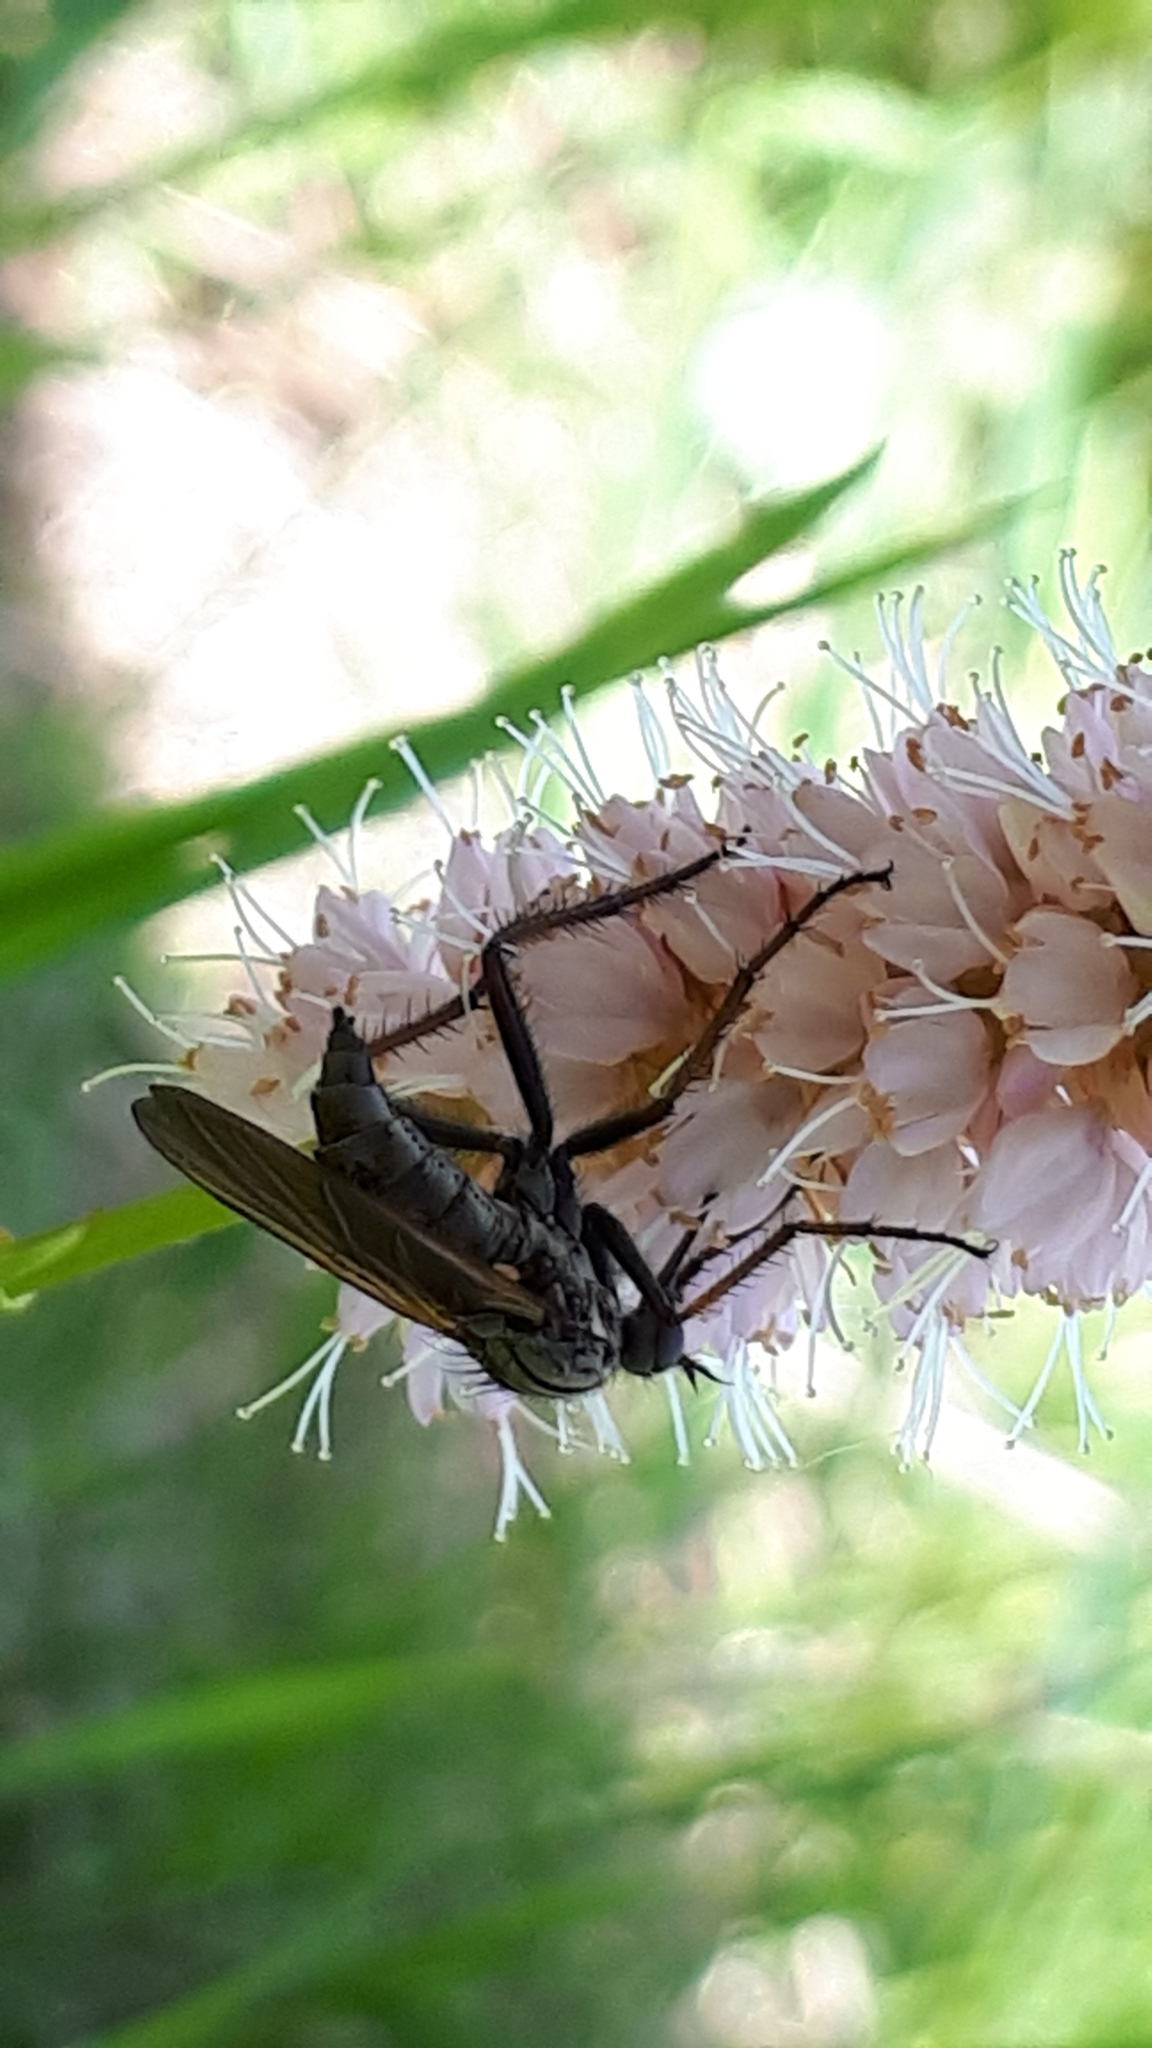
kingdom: Animalia
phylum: Arthropoda
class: Insecta
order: Diptera
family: Empididae
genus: Empis
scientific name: Empis tessellata
